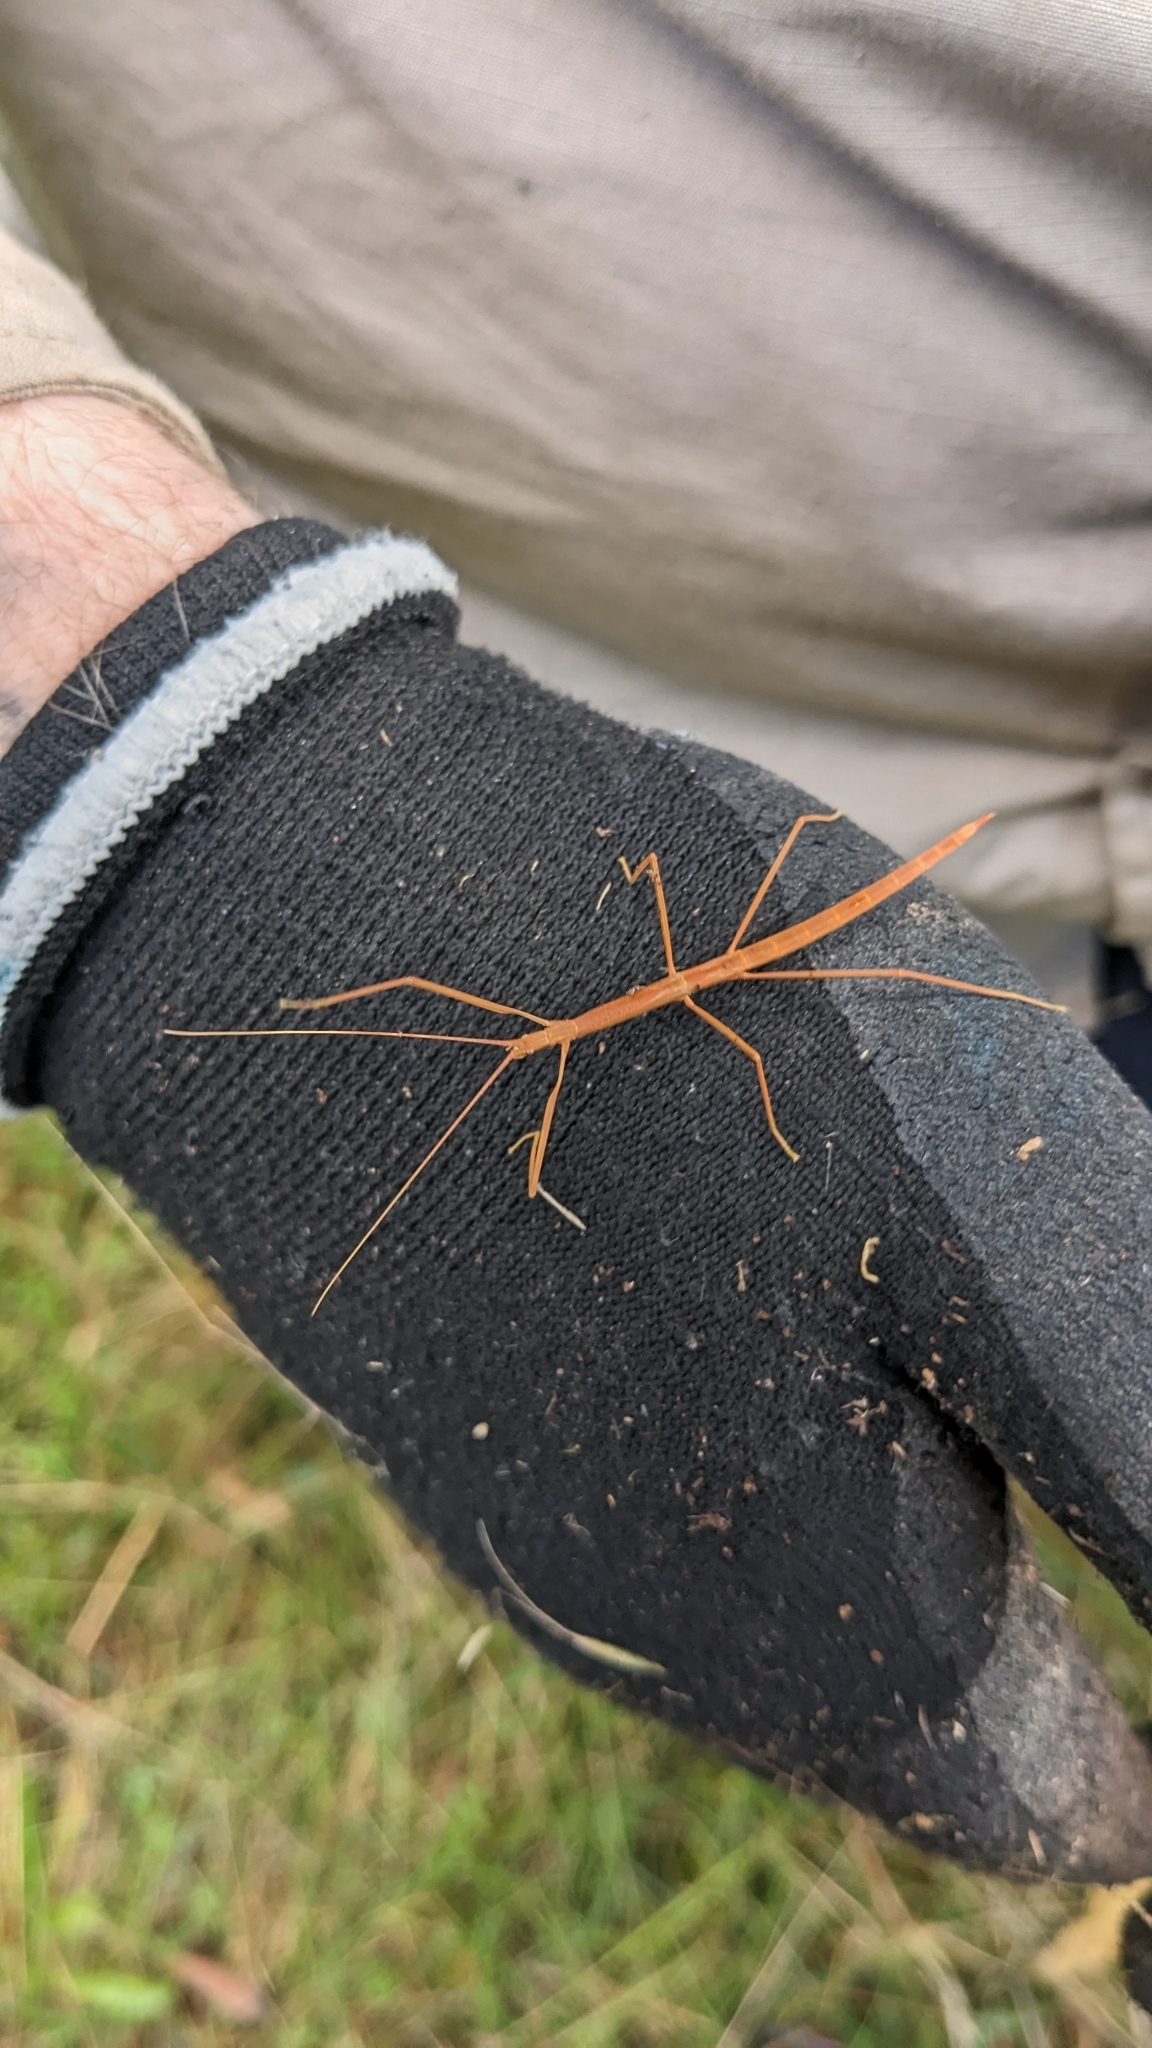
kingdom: Animalia
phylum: Arthropoda
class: Insecta
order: Phasmida
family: Lonchodidae
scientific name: Lonchodidae
